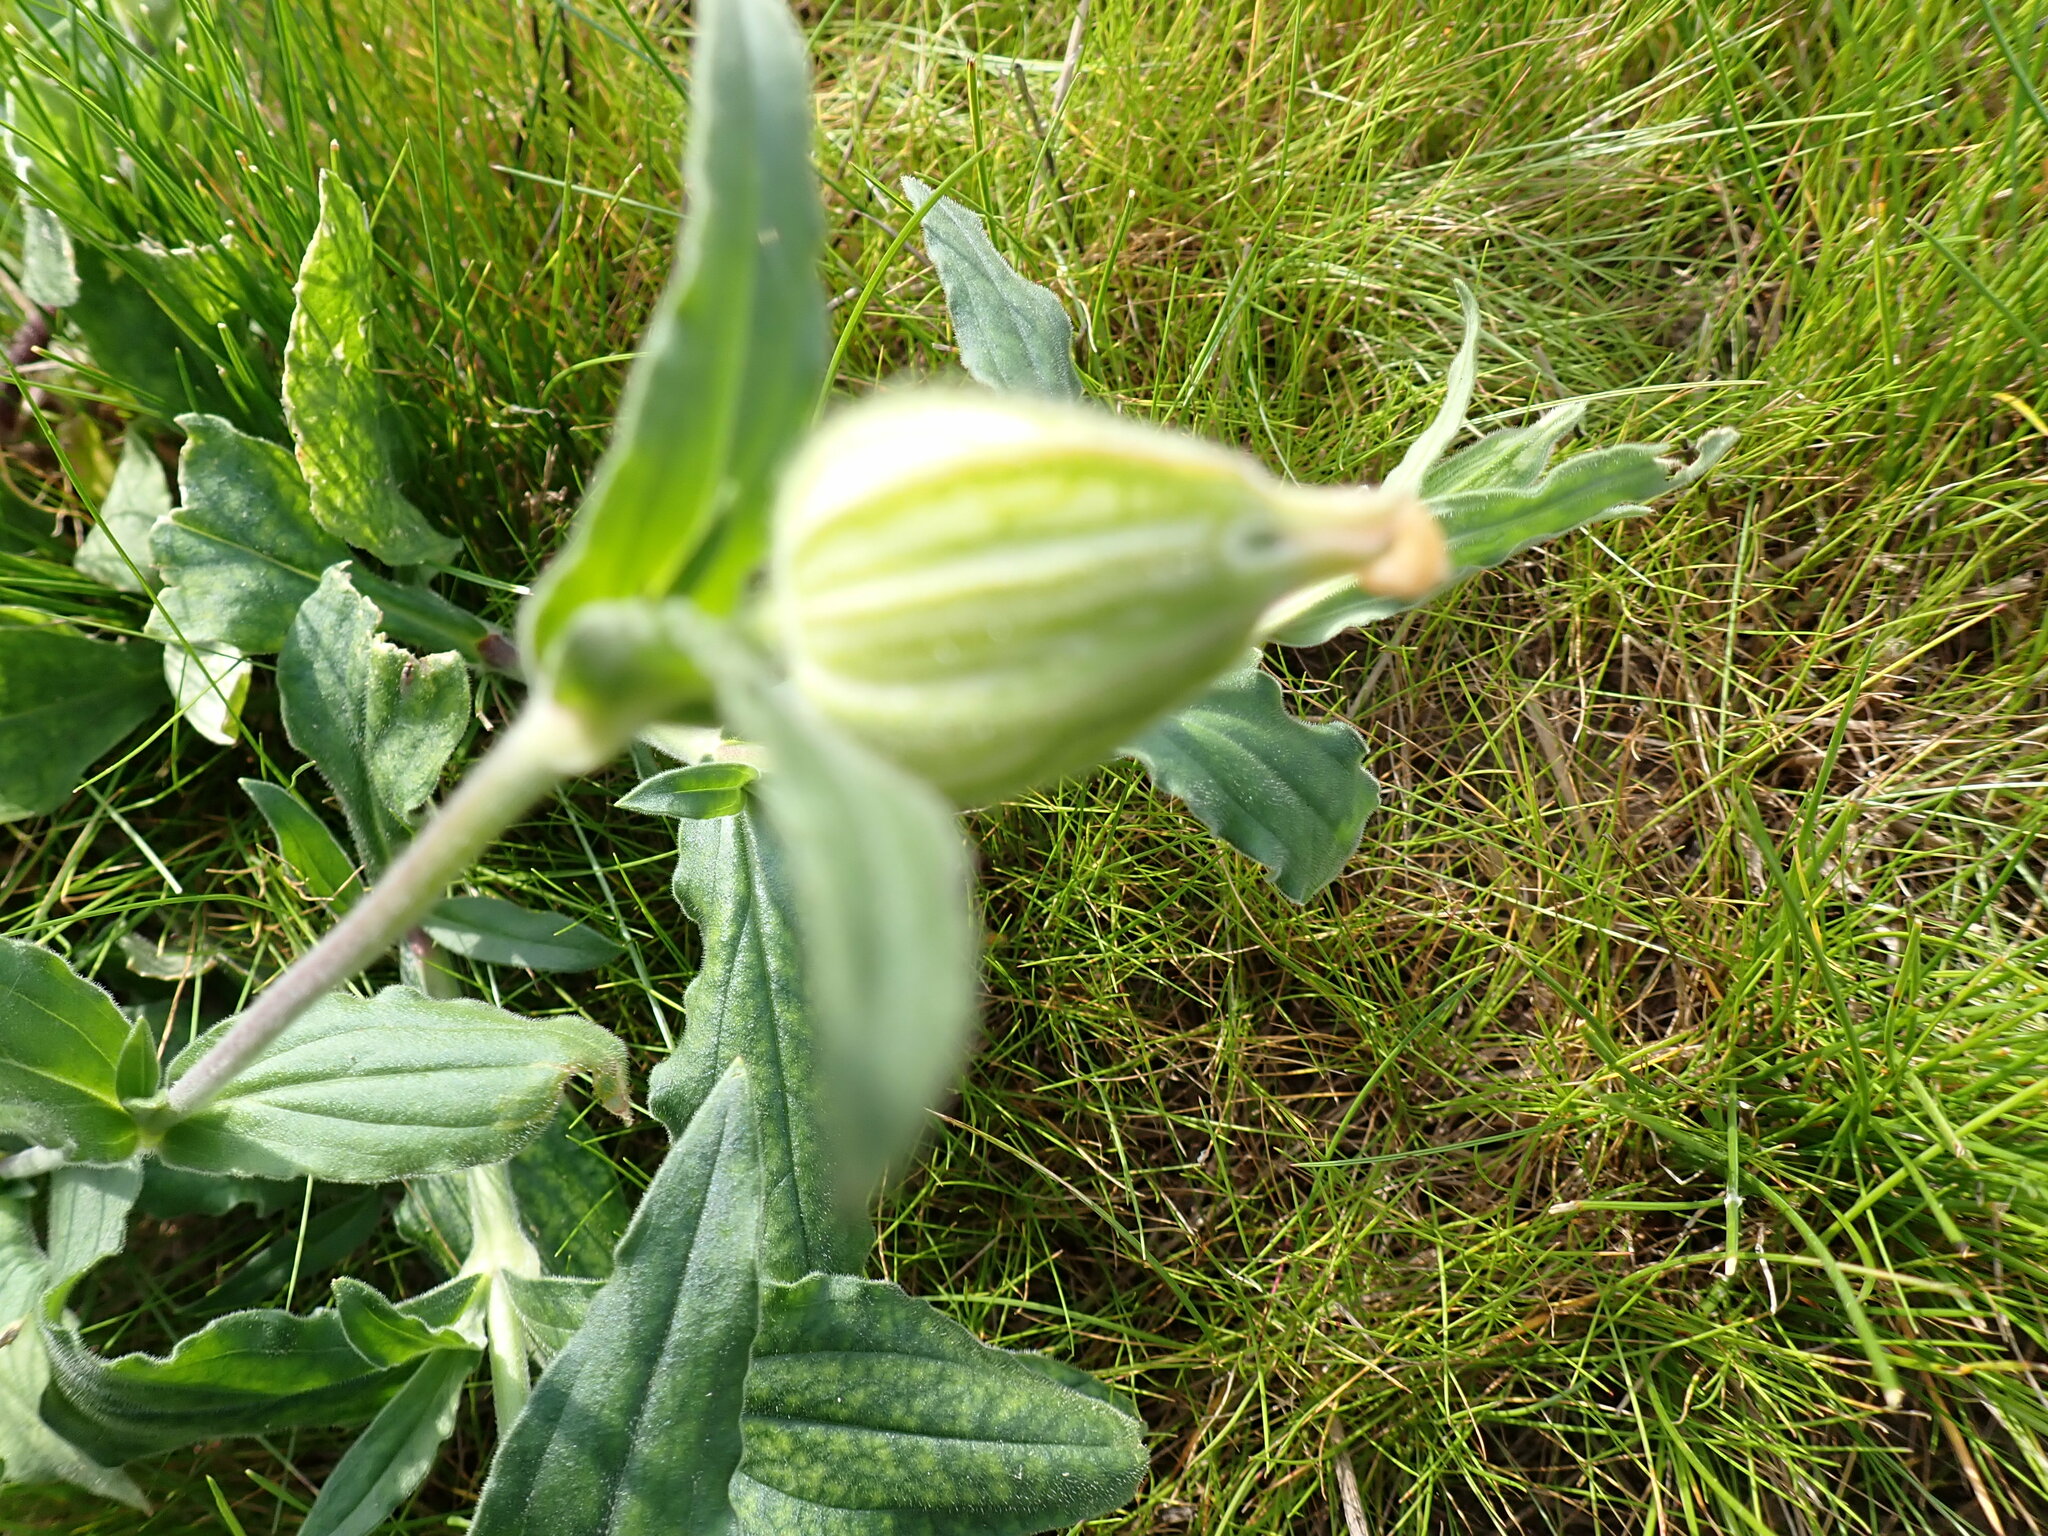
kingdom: Plantae
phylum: Tracheophyta
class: Magnoliopsida
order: Caryophyllales
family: Caryophyllaceae
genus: Silene
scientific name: Silene latifolia
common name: White campion
